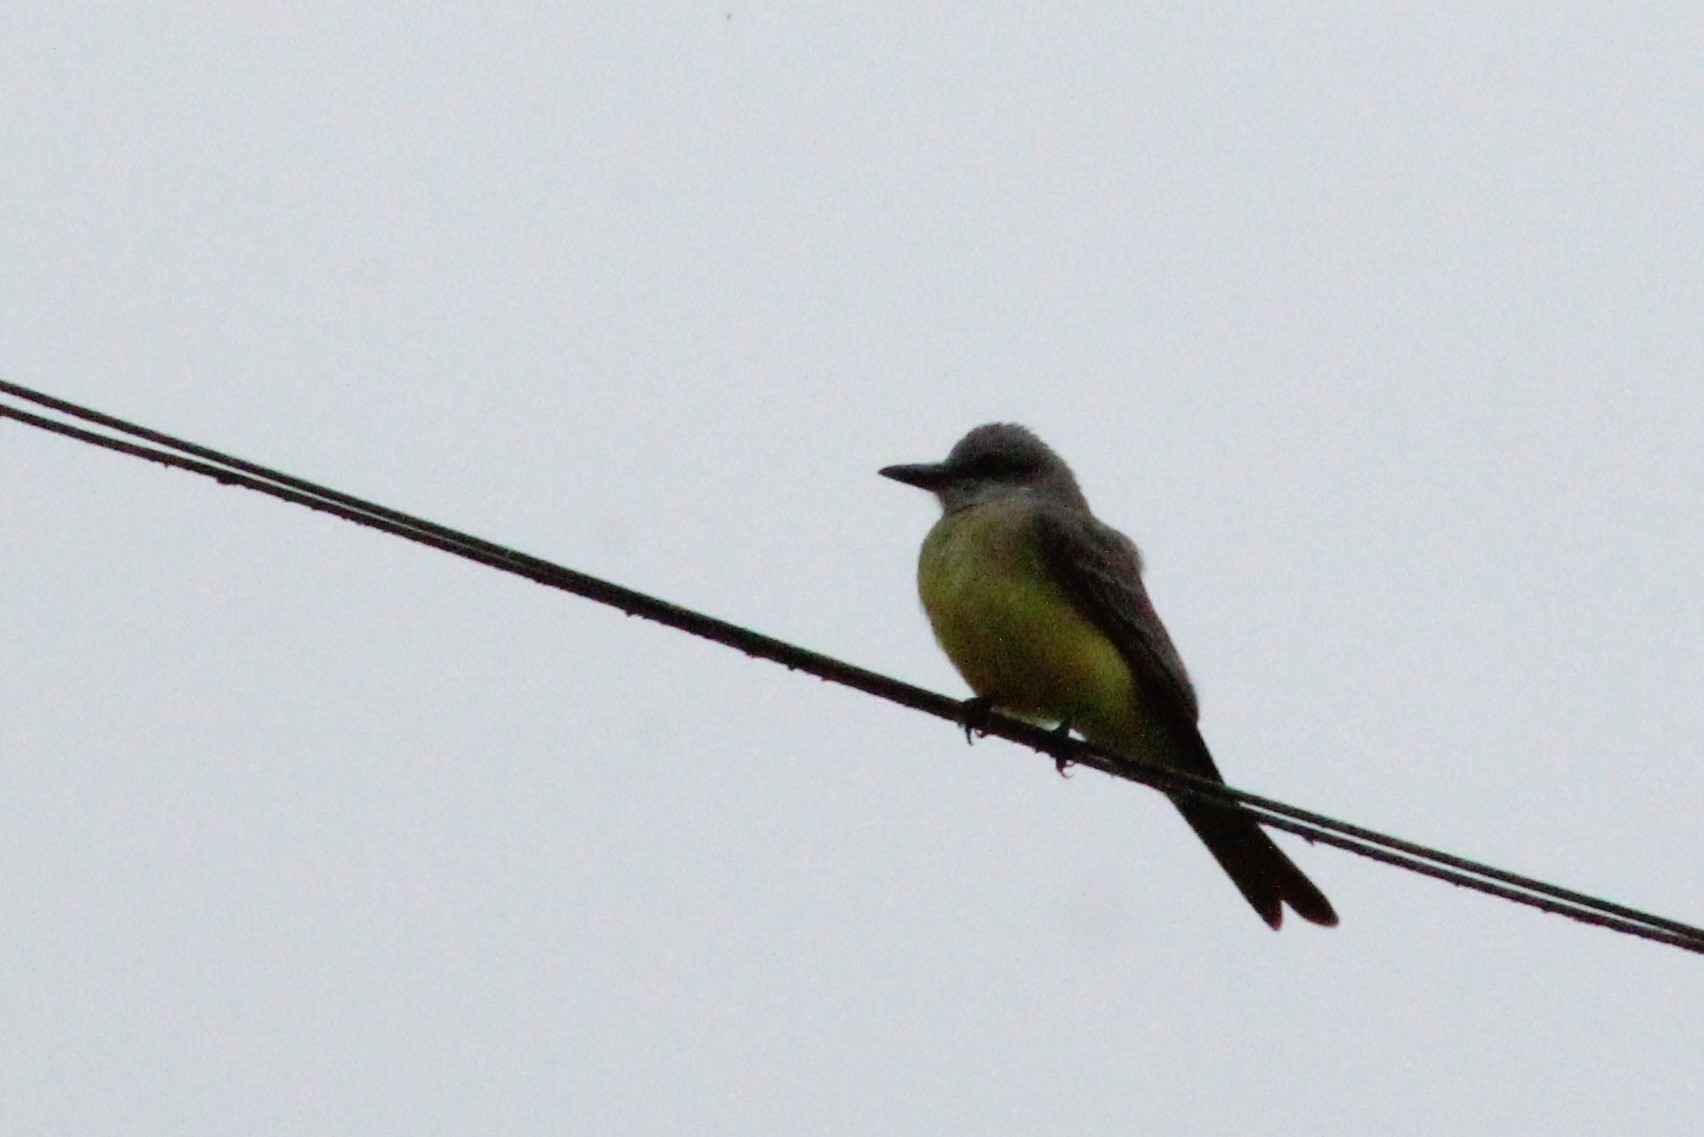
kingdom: Animalia
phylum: Chordata
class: Aves
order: Passeriformes
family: Tyrannidae
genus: Tyrannus
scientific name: Tyrannus melancholicus
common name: Tropical kingbird
